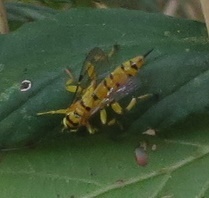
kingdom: Animalia
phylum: Arthropoda
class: Insecta
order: Hymenoptera
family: Ichneumonidae
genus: Xanthopimpla
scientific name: Xanthopimpla rhopaloceros
